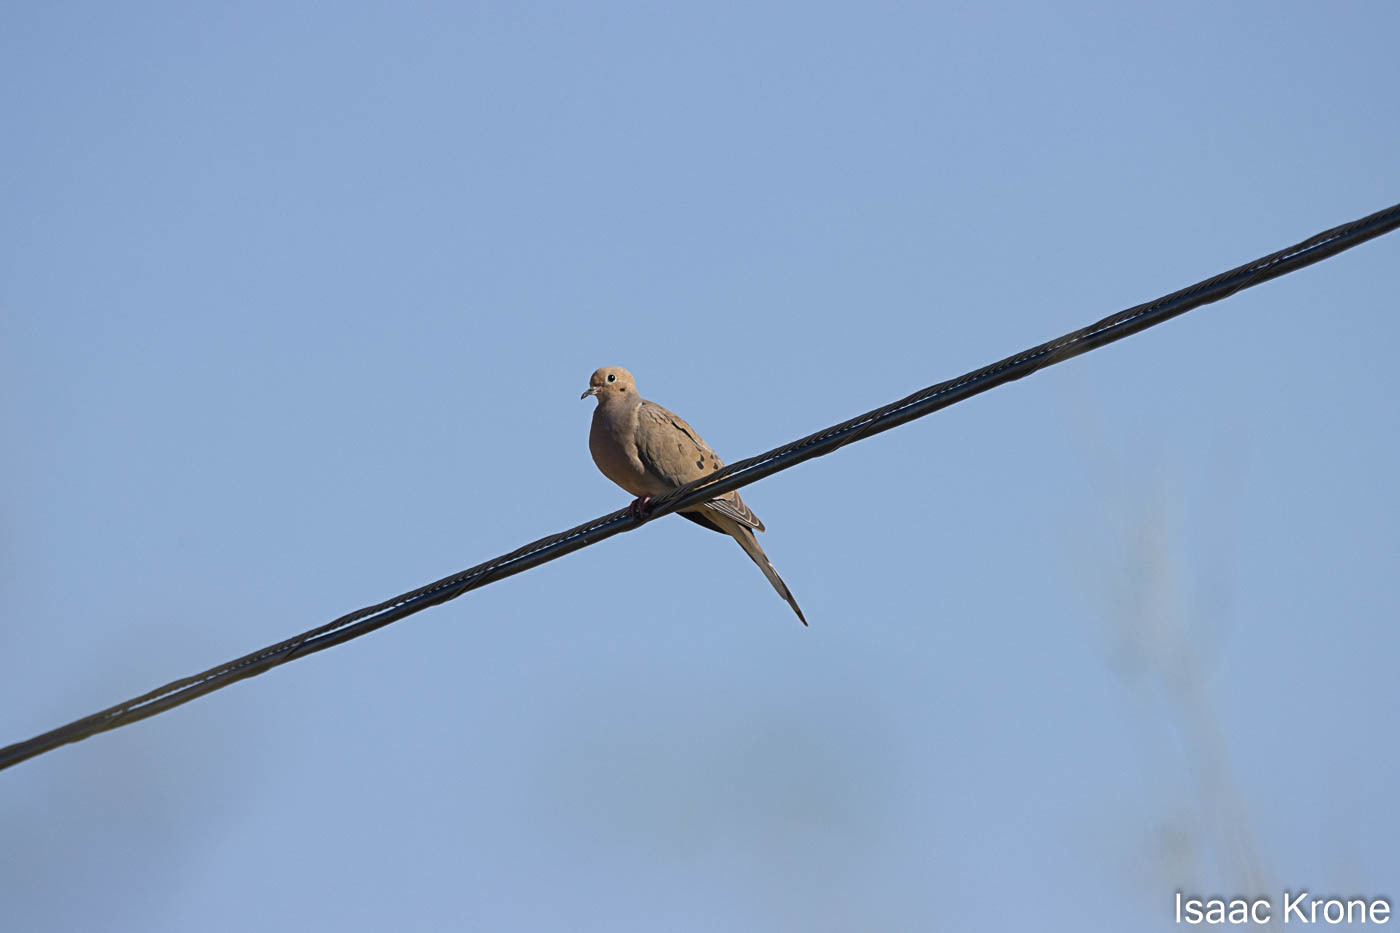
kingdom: Animalia
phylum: Chordata
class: Aves
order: Columbiformes
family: Columbidae
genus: Zenaida
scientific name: Zenaida macroura
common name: Mourning dove
